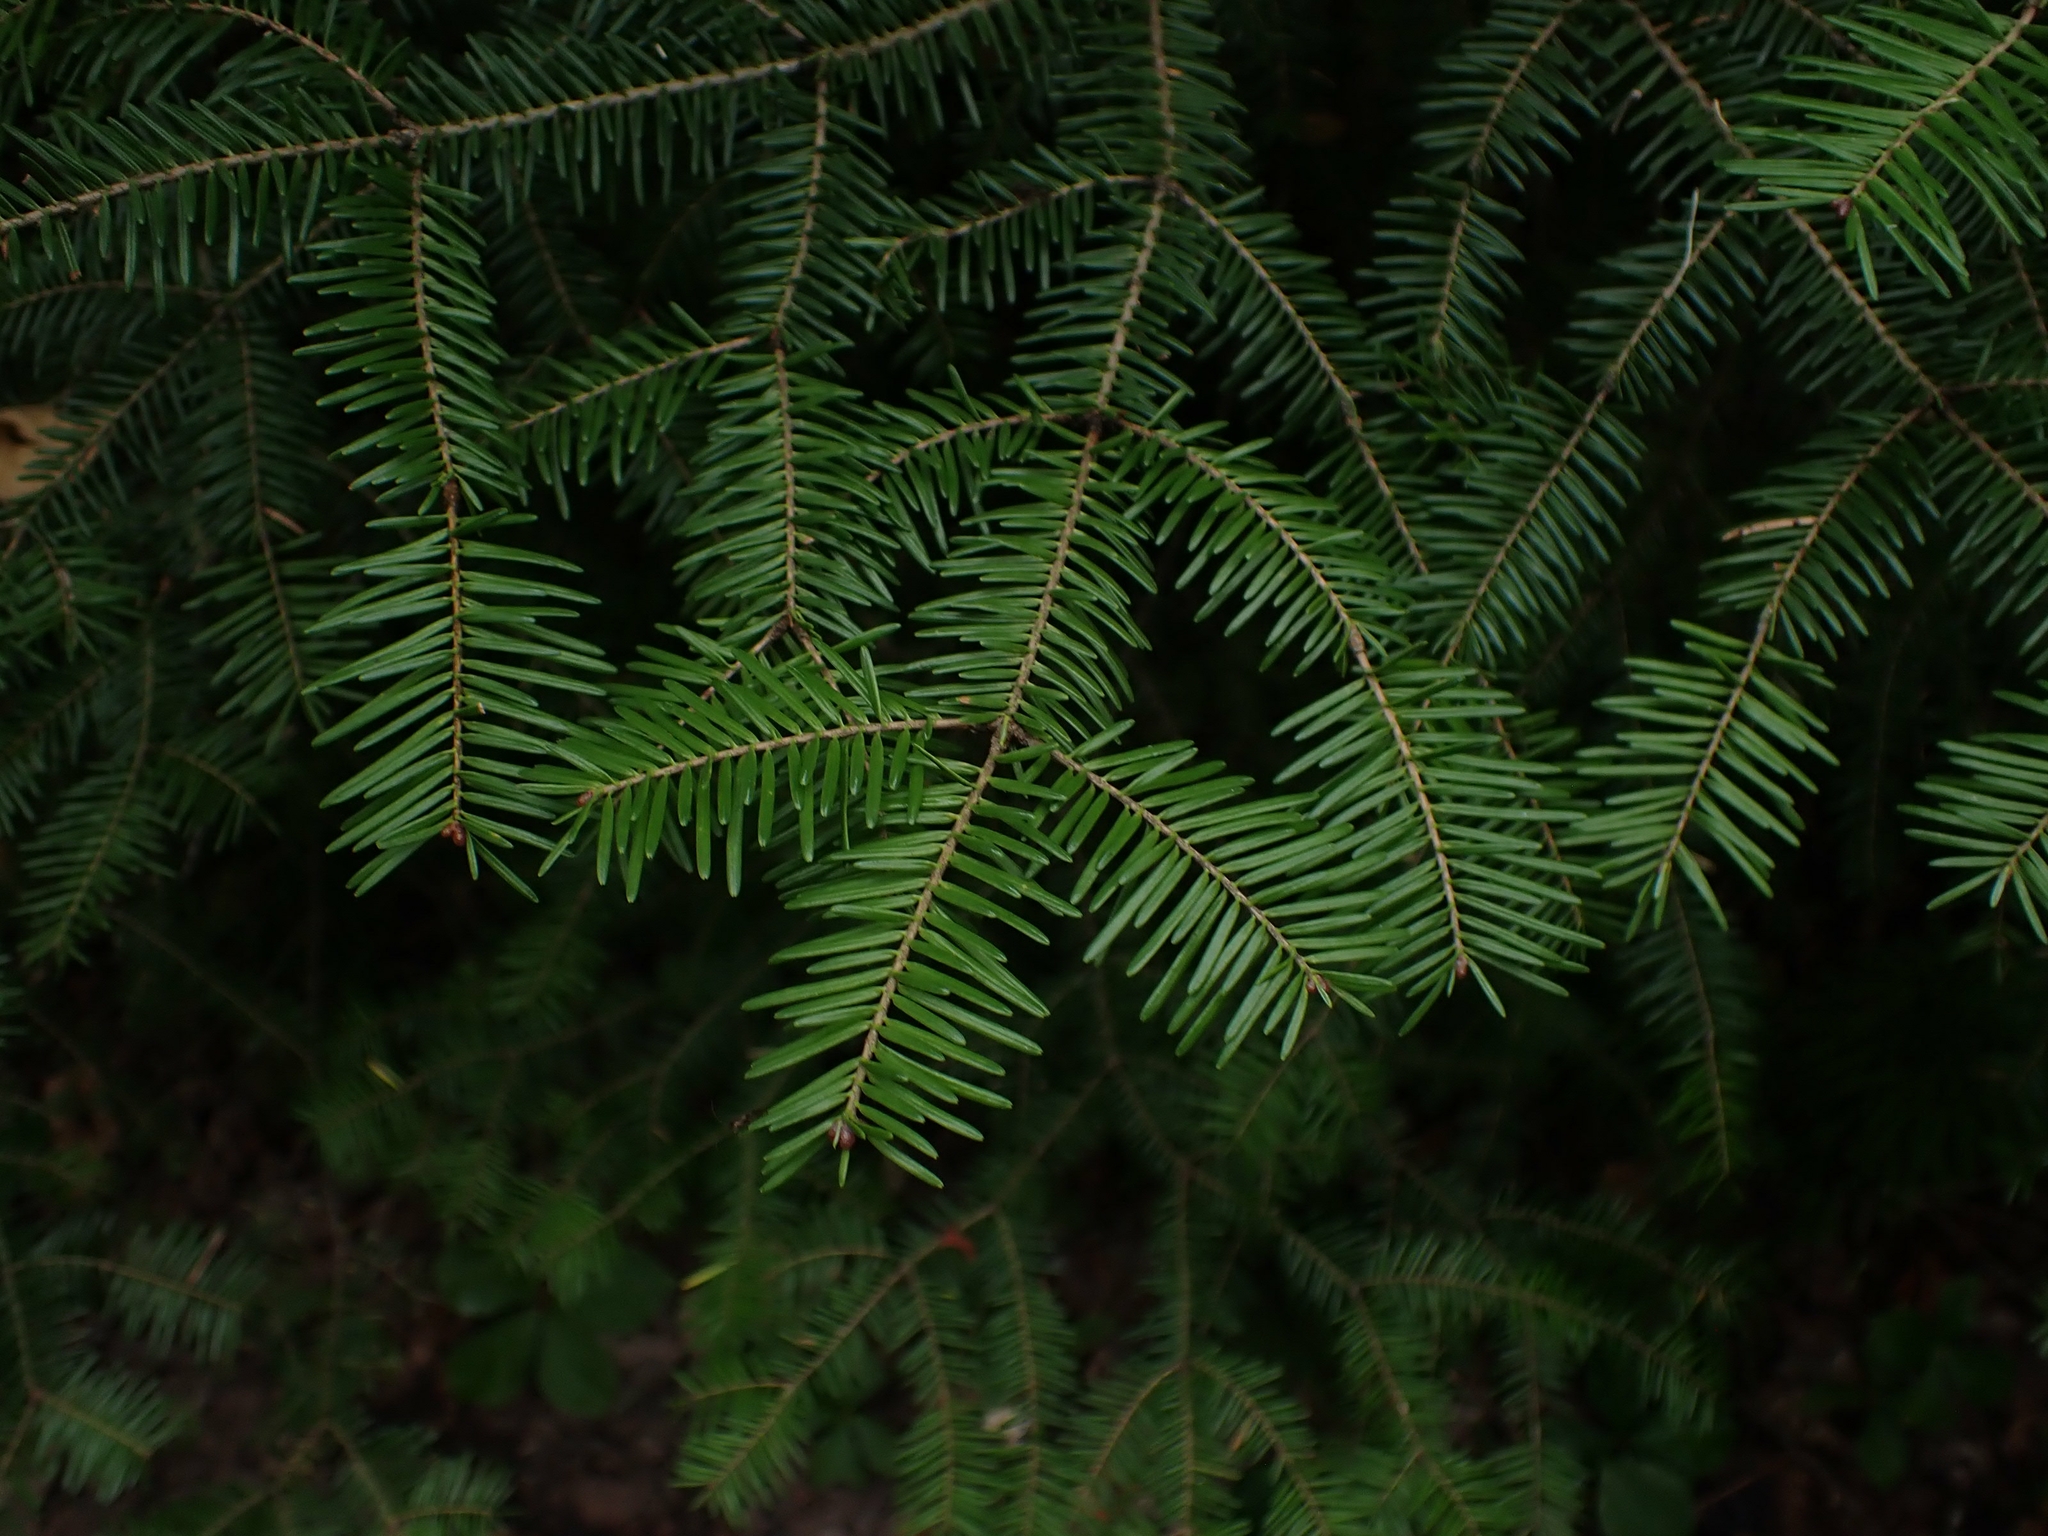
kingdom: Plantae
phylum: Tracheophyta
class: Pinopsida
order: Pinales
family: Pinaceae
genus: Abies
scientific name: Abies balsamea
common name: Balsam fir
